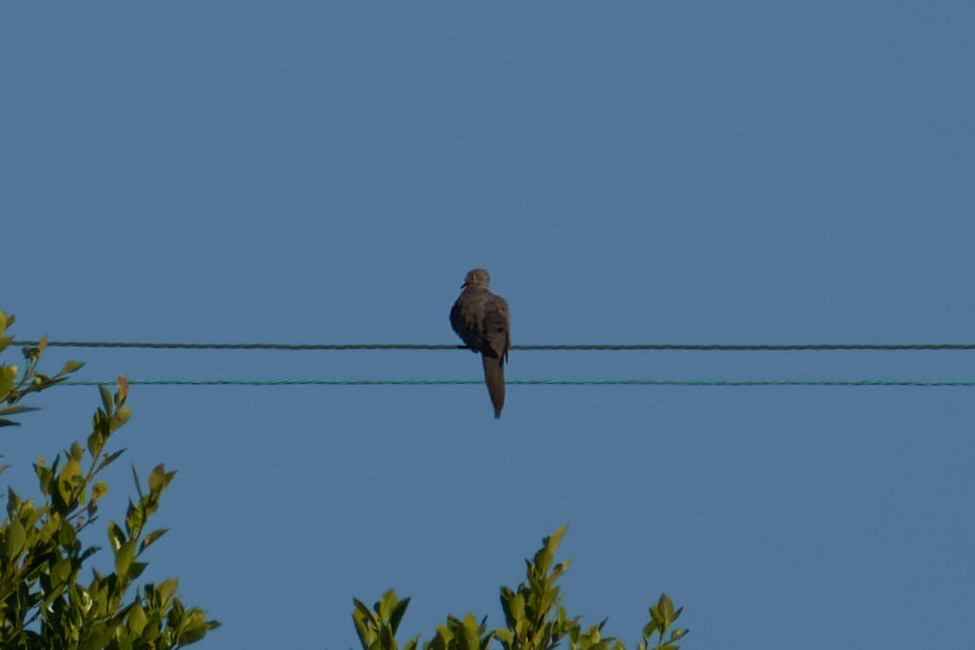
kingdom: Animalia
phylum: Chordata
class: Aves
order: Columbiformes
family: Columbidae
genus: Zenaida
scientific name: Zenaida macroura
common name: Mourning dove
